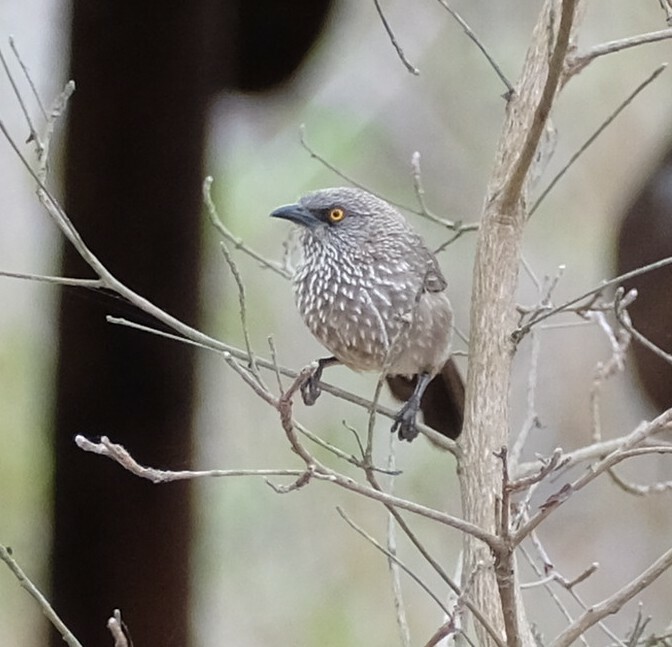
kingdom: Animalia
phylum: Chordata
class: Aves
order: Passeriformes
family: Leiothrichidae
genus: Turdoides
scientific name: Turdoides jardineii
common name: Arrow-marked babbler
